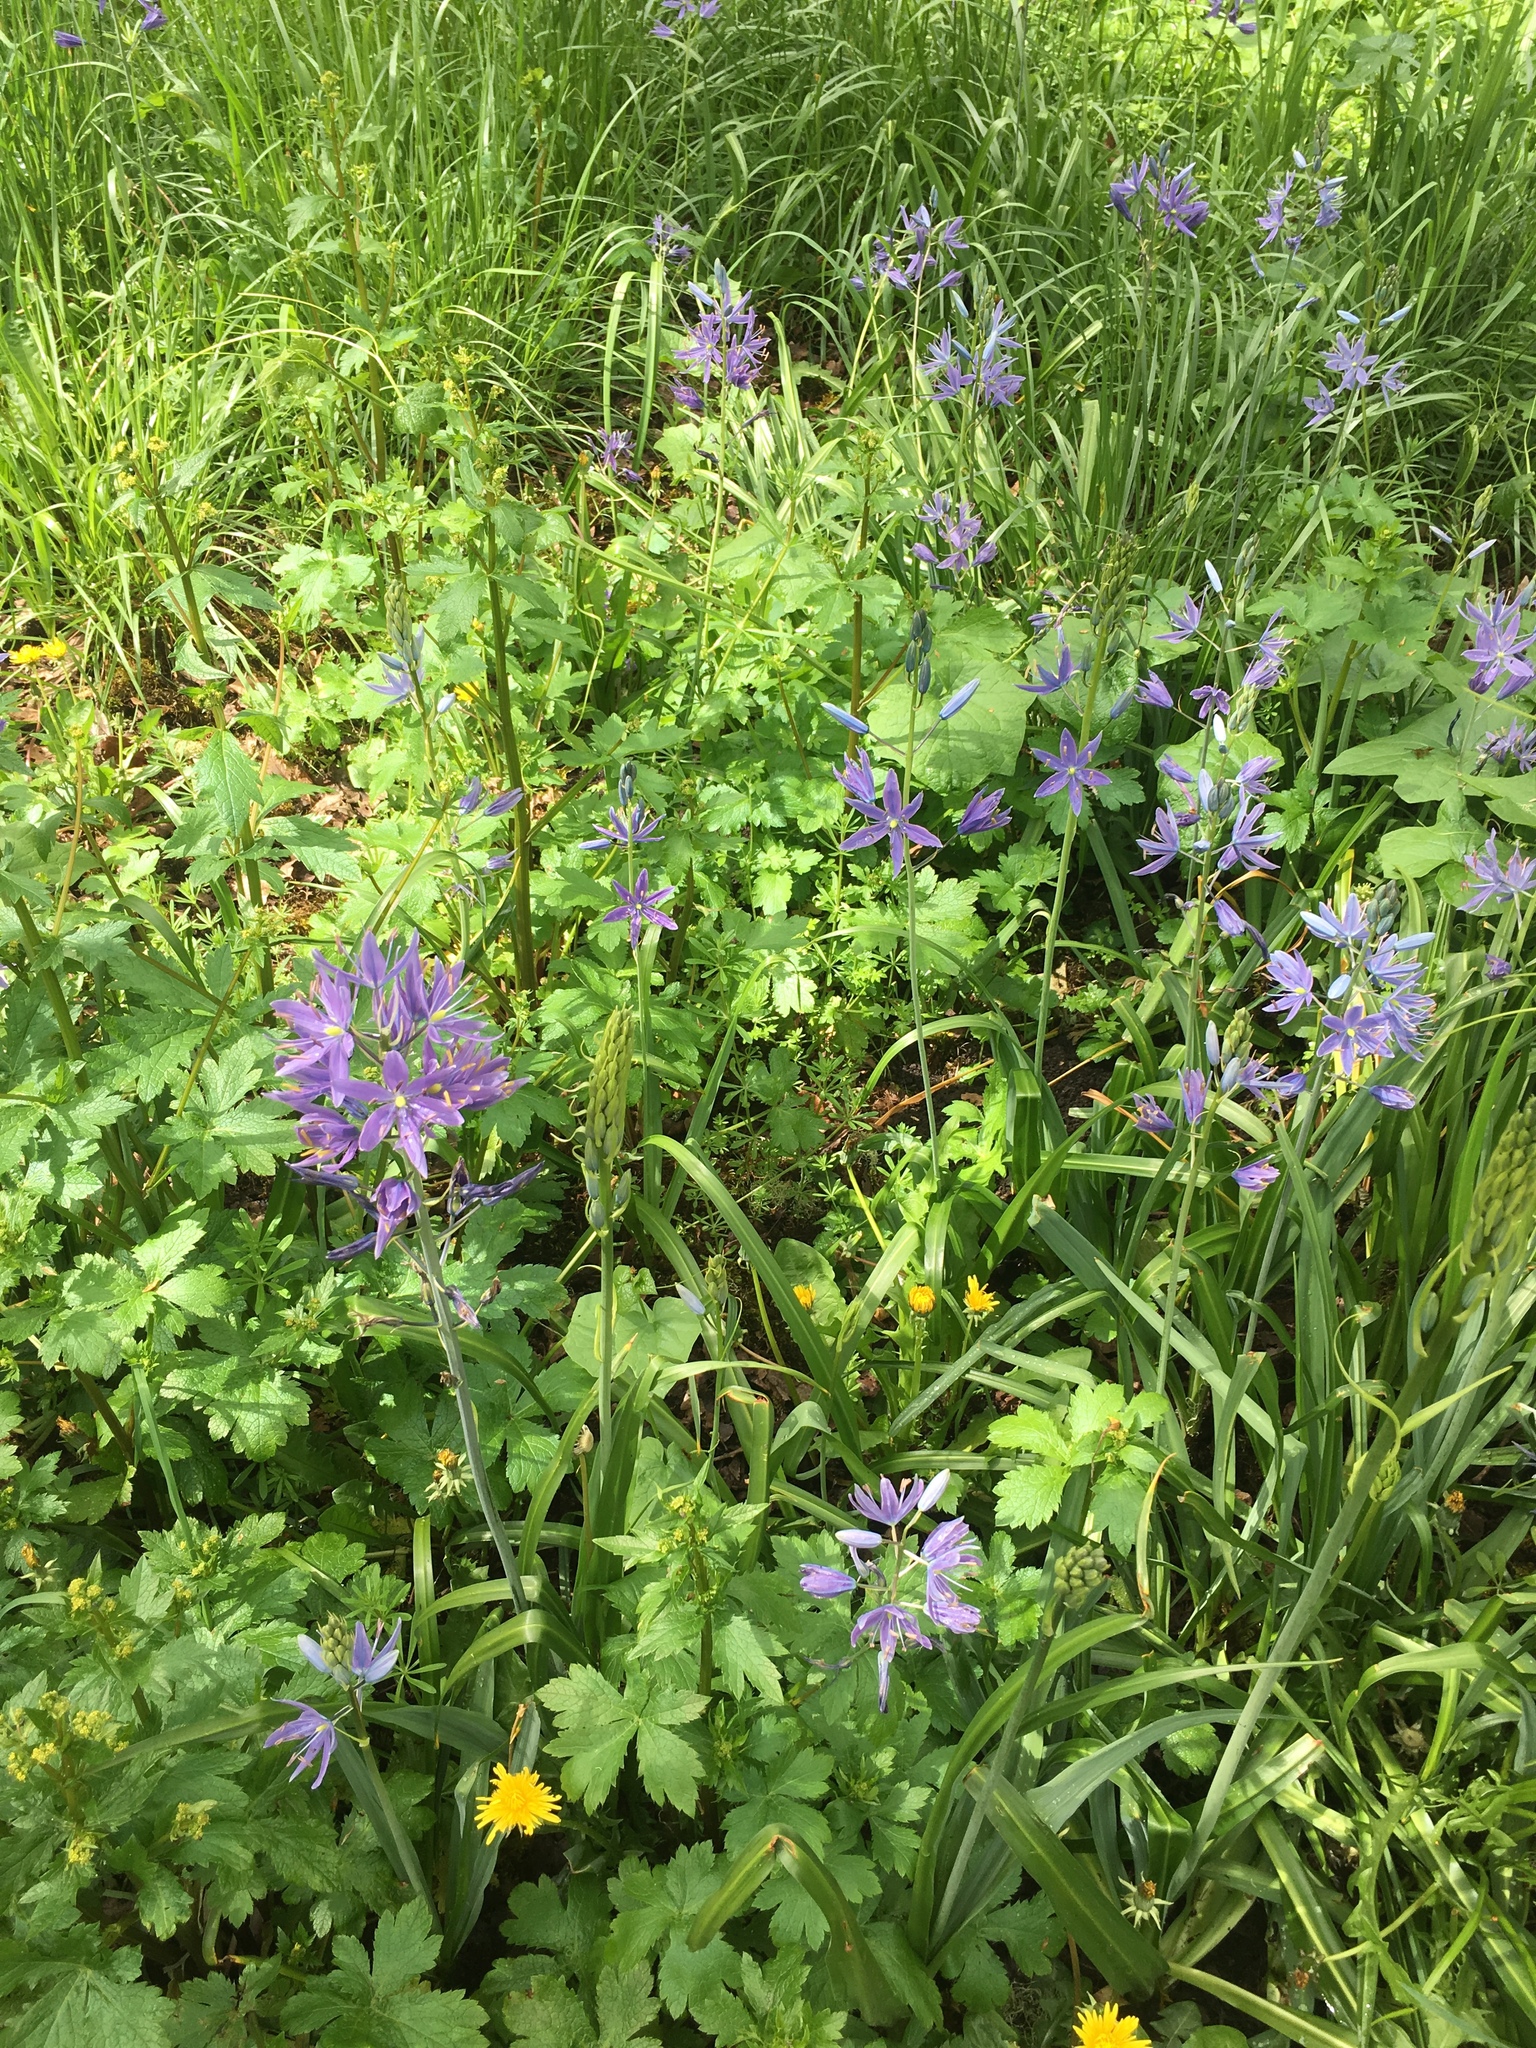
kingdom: Plantae
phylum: Tracheophyta
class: Liliopsida
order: Asparagales
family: Asparagaceae
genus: Camassia
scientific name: Camassia leichtlinii
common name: Leichtlin's camas
